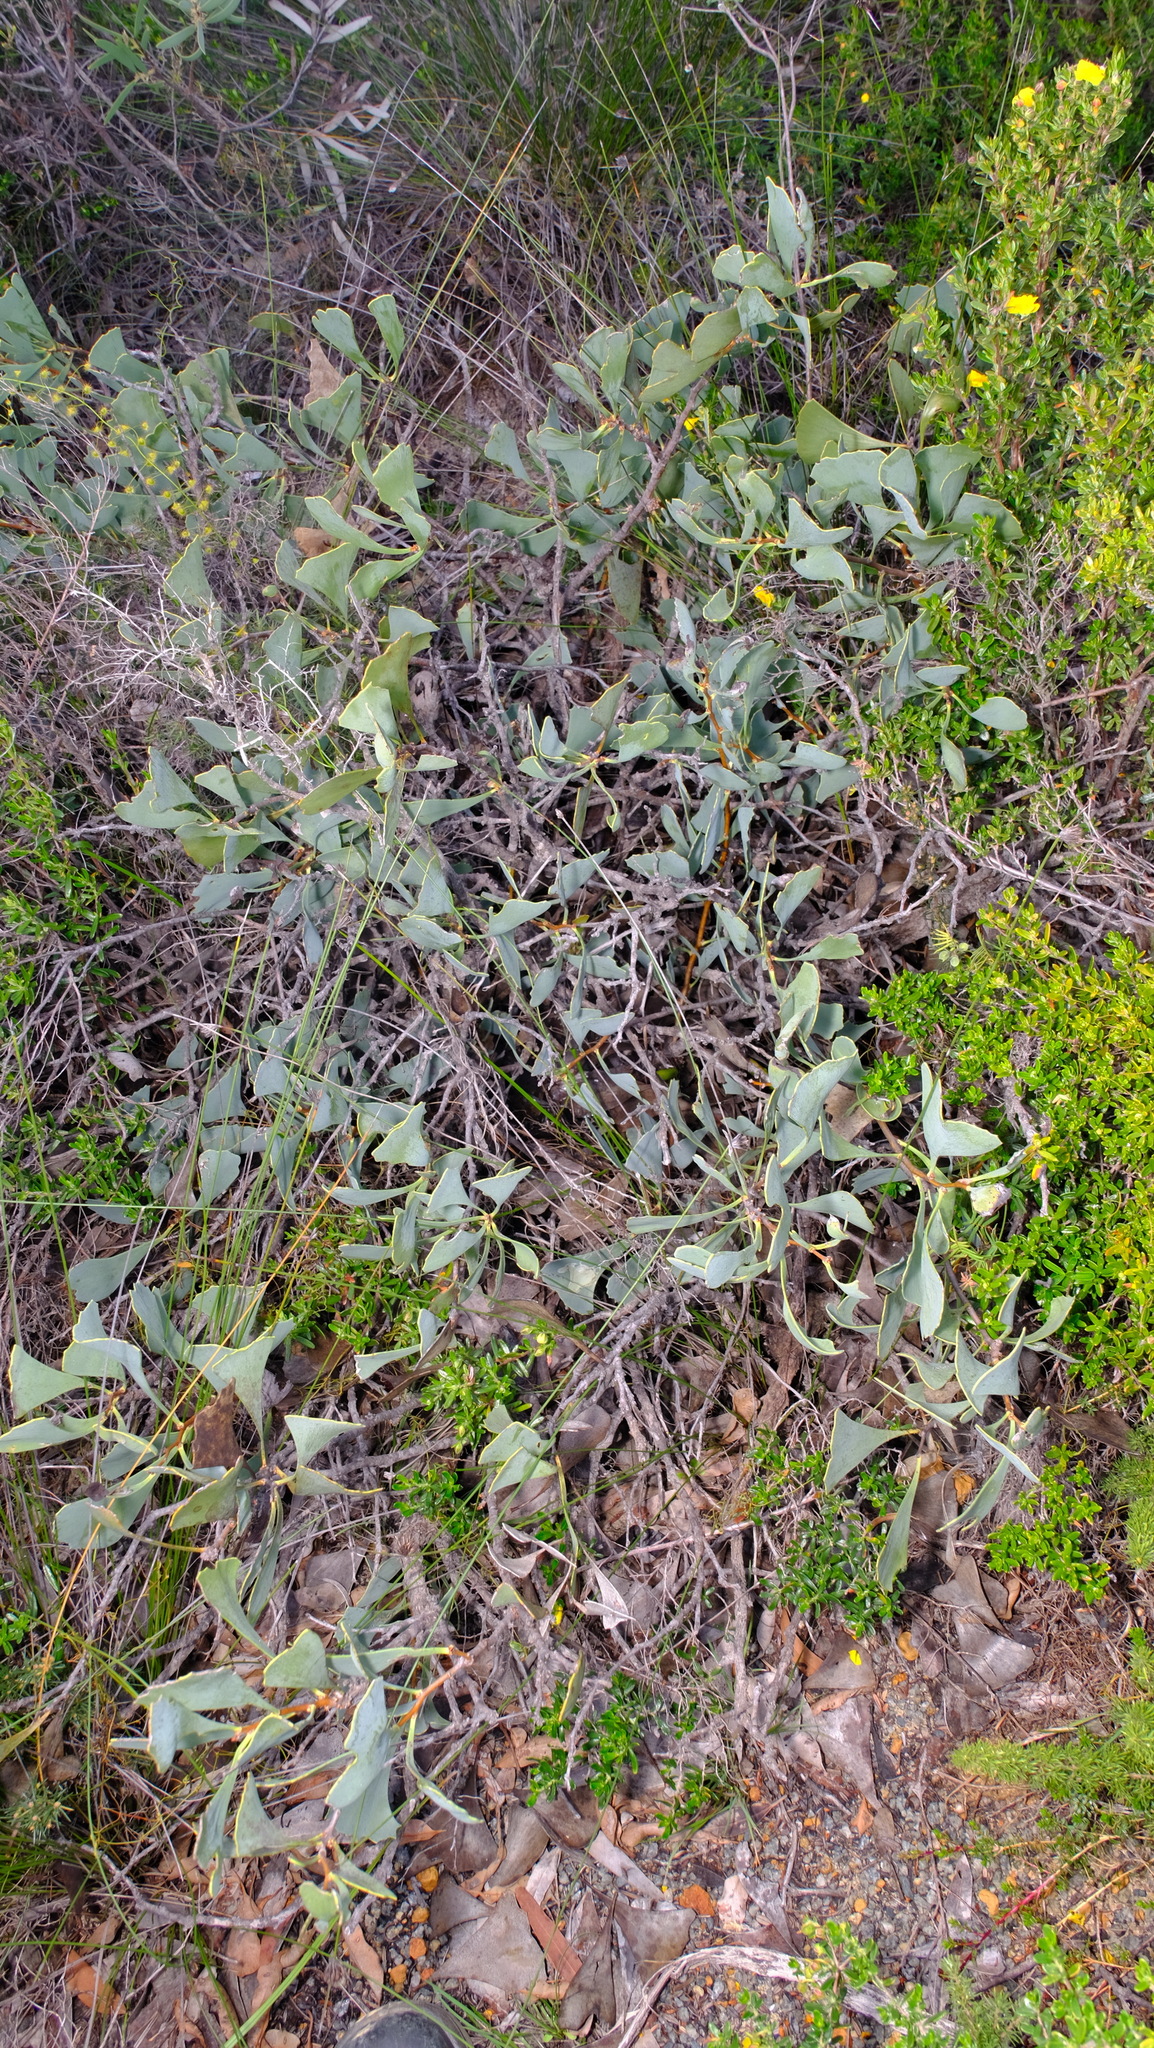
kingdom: Plantae
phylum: Tracheophyta
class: Magnoliopsida
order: Proteales
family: Proteaceae
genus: Hakea
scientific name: Hakea flabellifolia
